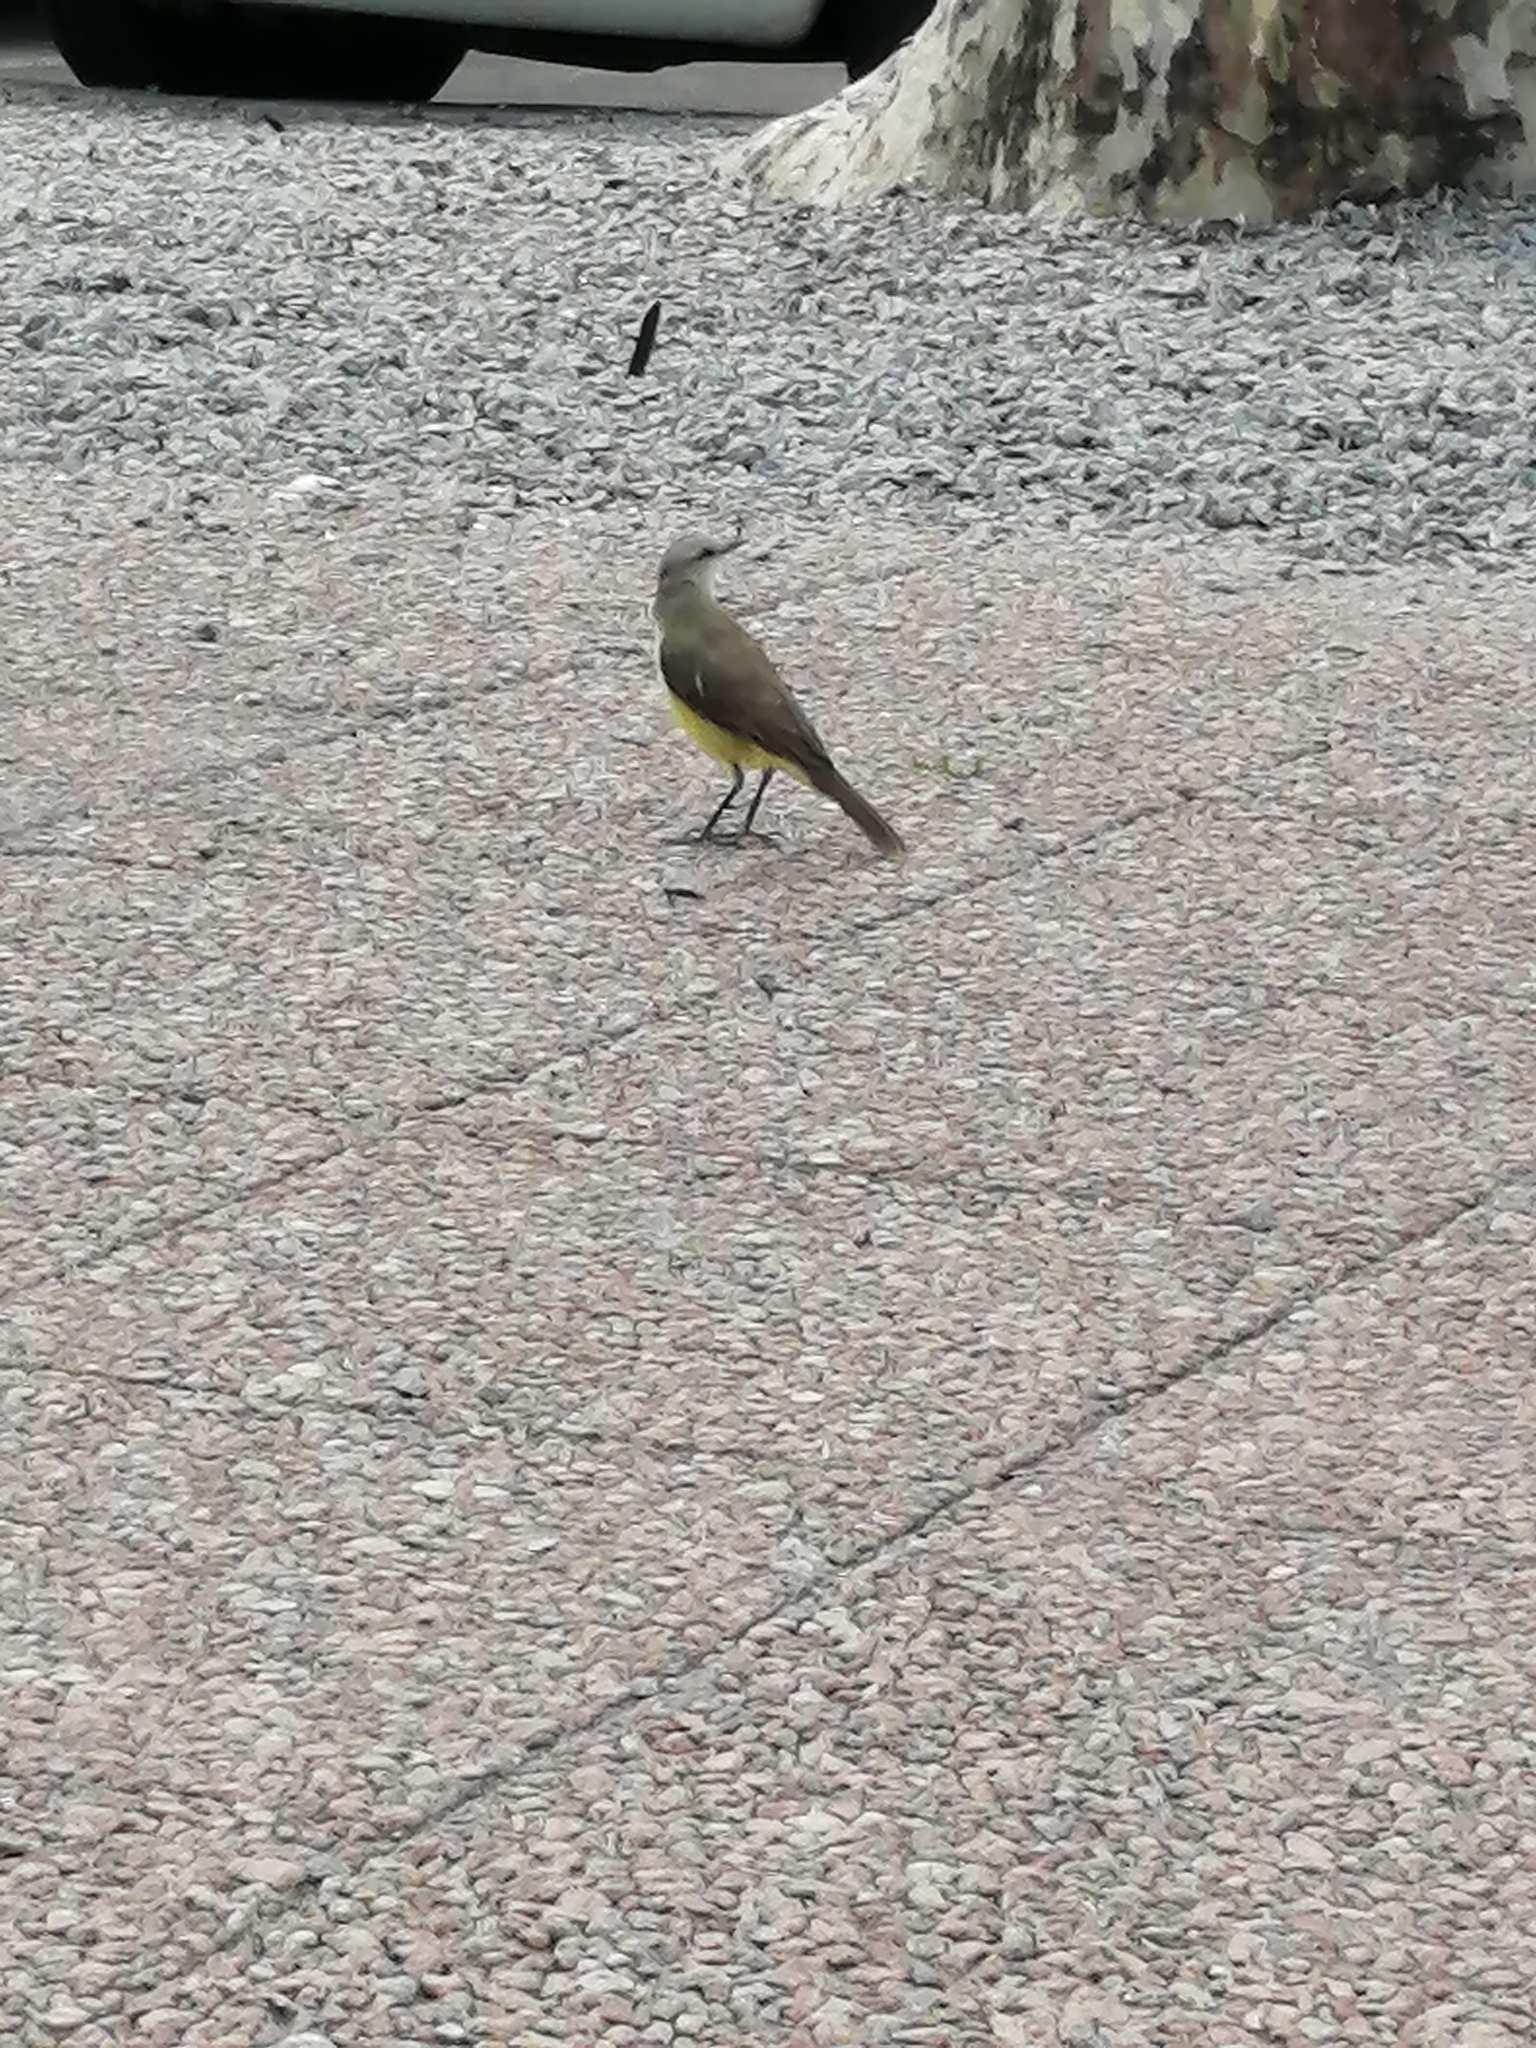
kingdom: Animalia
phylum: Chordata
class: Aves
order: Passeriformes
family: Tyrannidae
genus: Machetornis
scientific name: Machetornis rixosa
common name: Cattle tyrant
